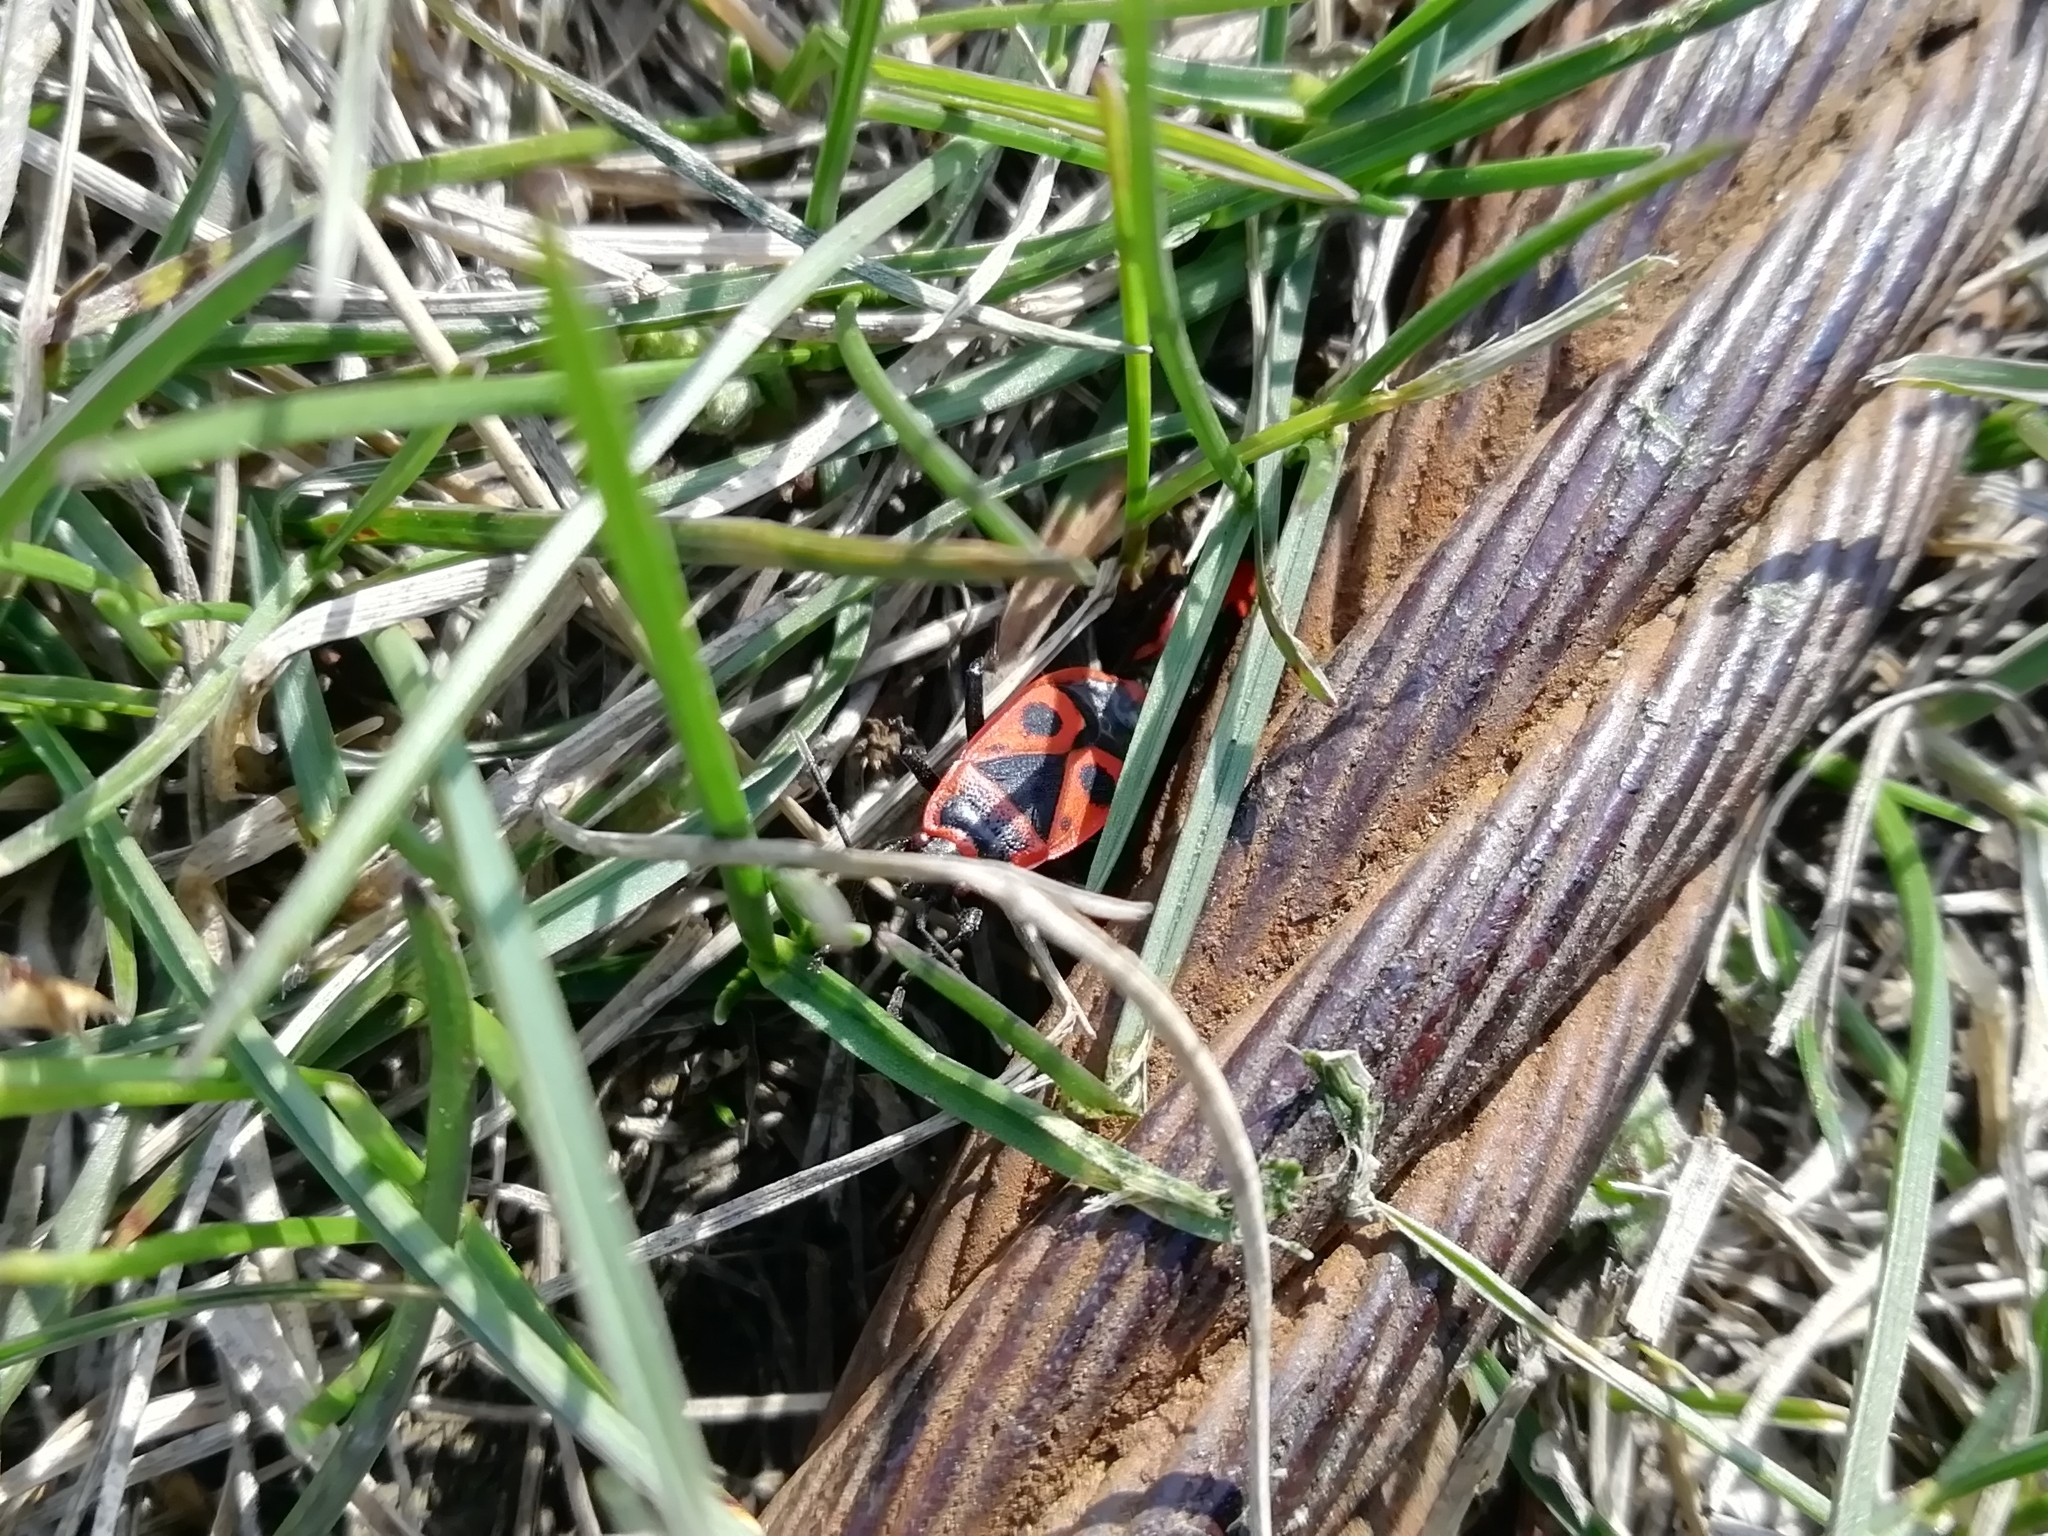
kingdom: Animalia
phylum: Arthropoda
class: Insecta
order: Hemiptera
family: Pyrrhocoridae
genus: Pyrrhocoris
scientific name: Pyrrhocoris apterus
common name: Firebug
